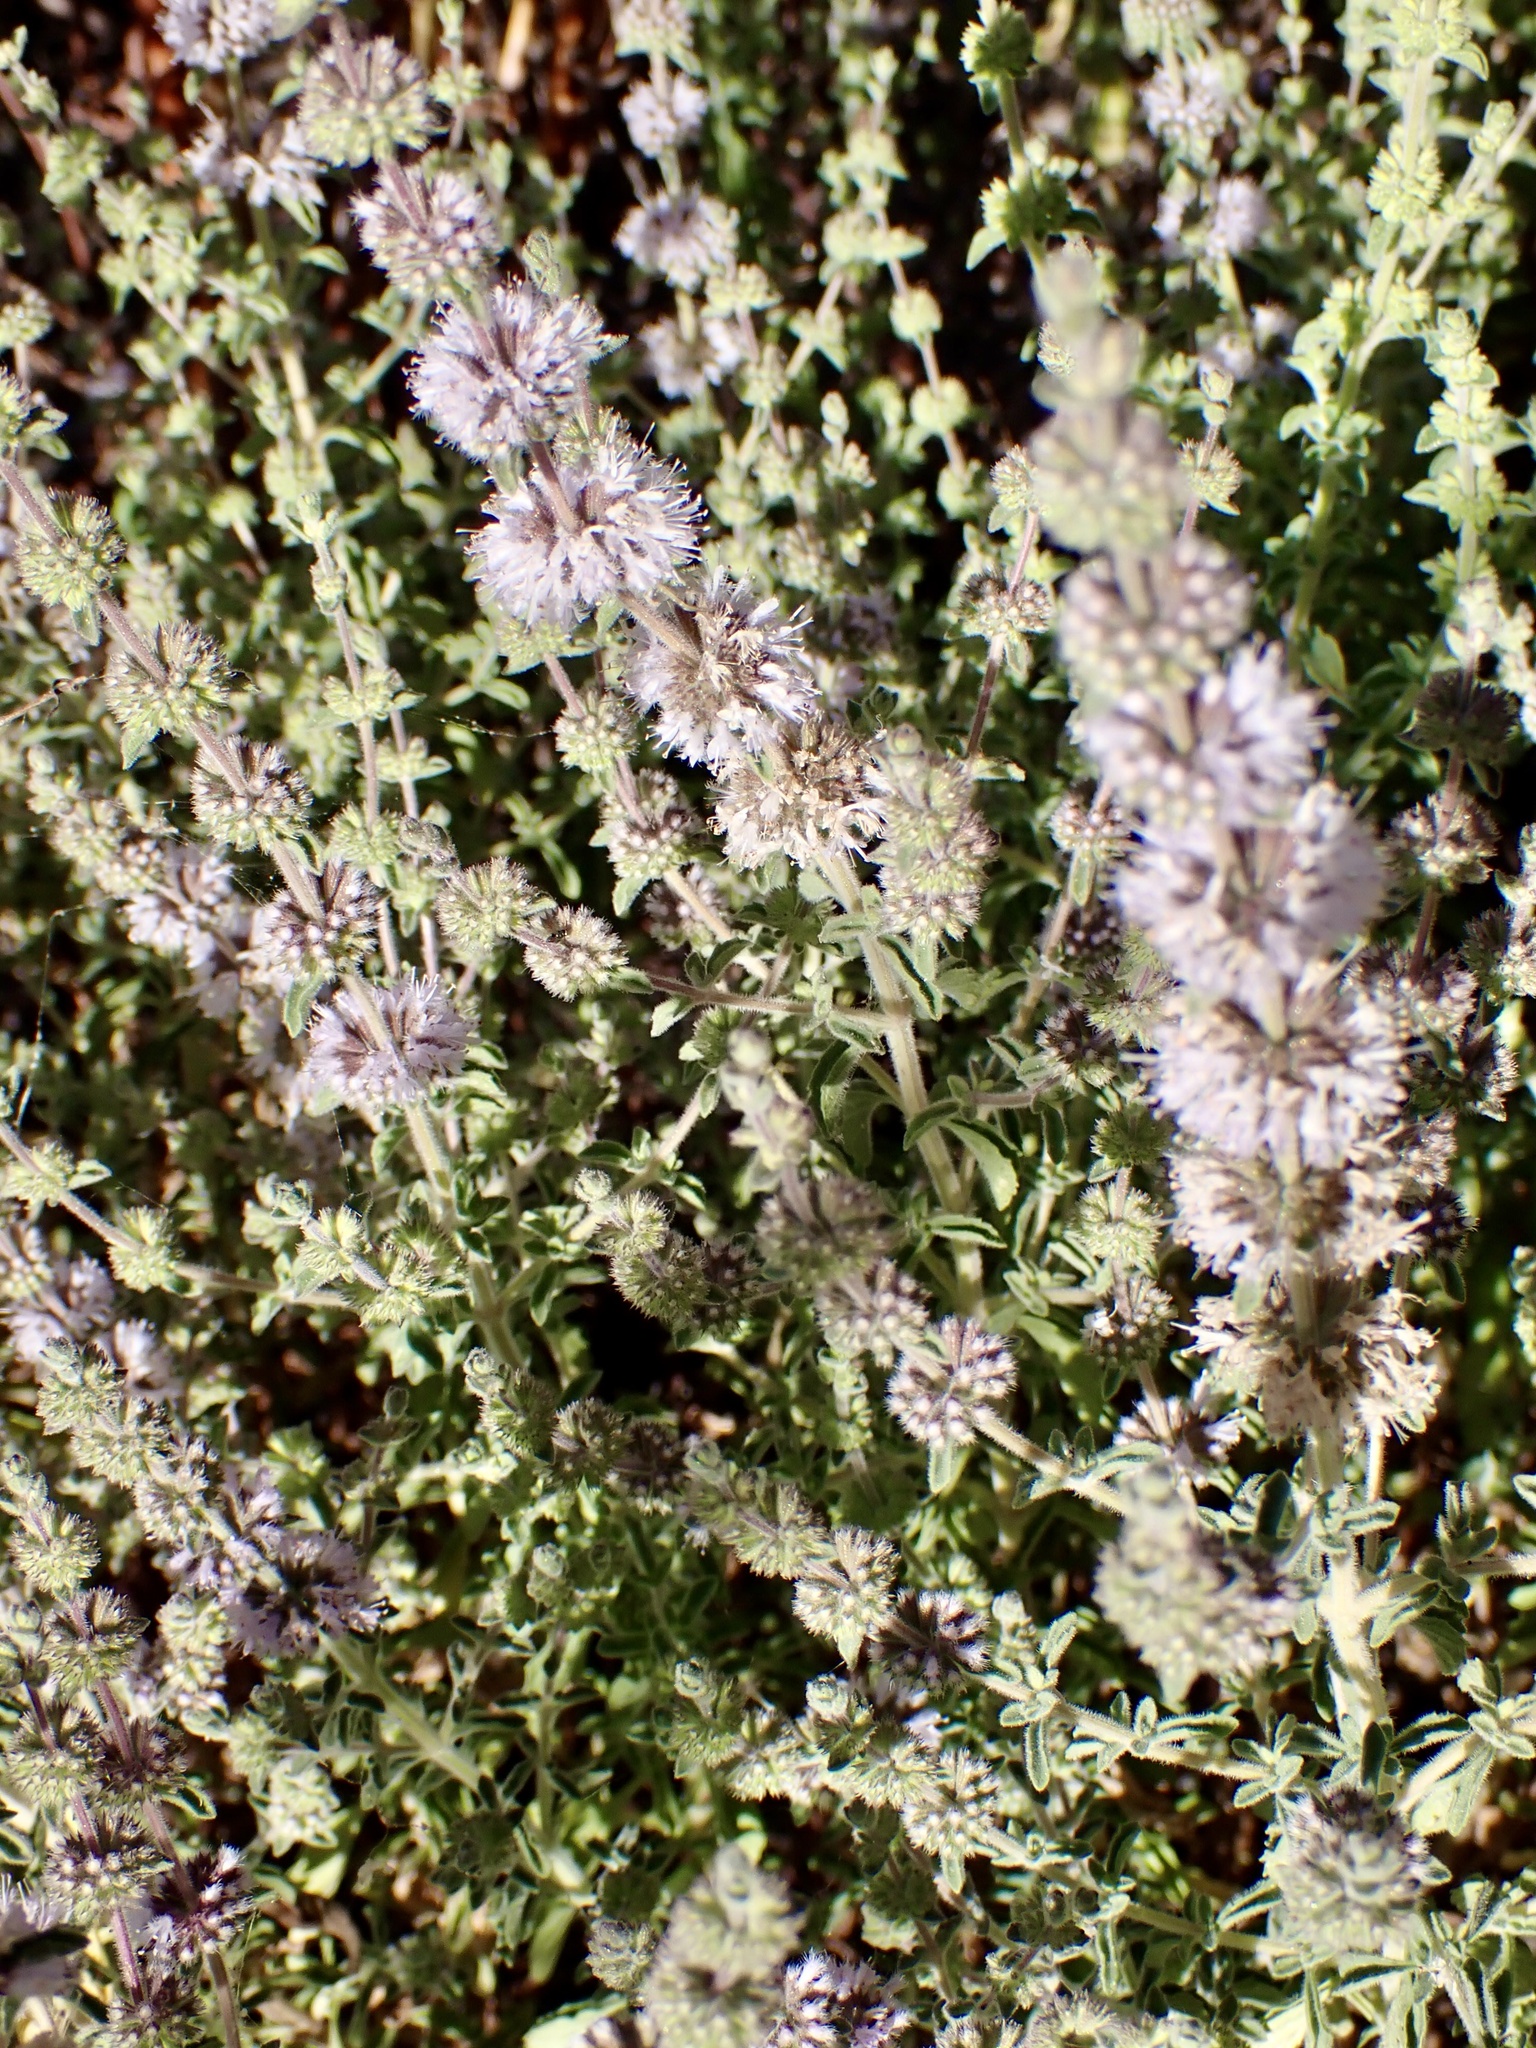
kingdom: Plantae
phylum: Tracheophyta
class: Magnoliopsida
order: Lamiales
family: Lamiaceae
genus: Mentha
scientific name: Mentha pulegium
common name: Pennyroyal
